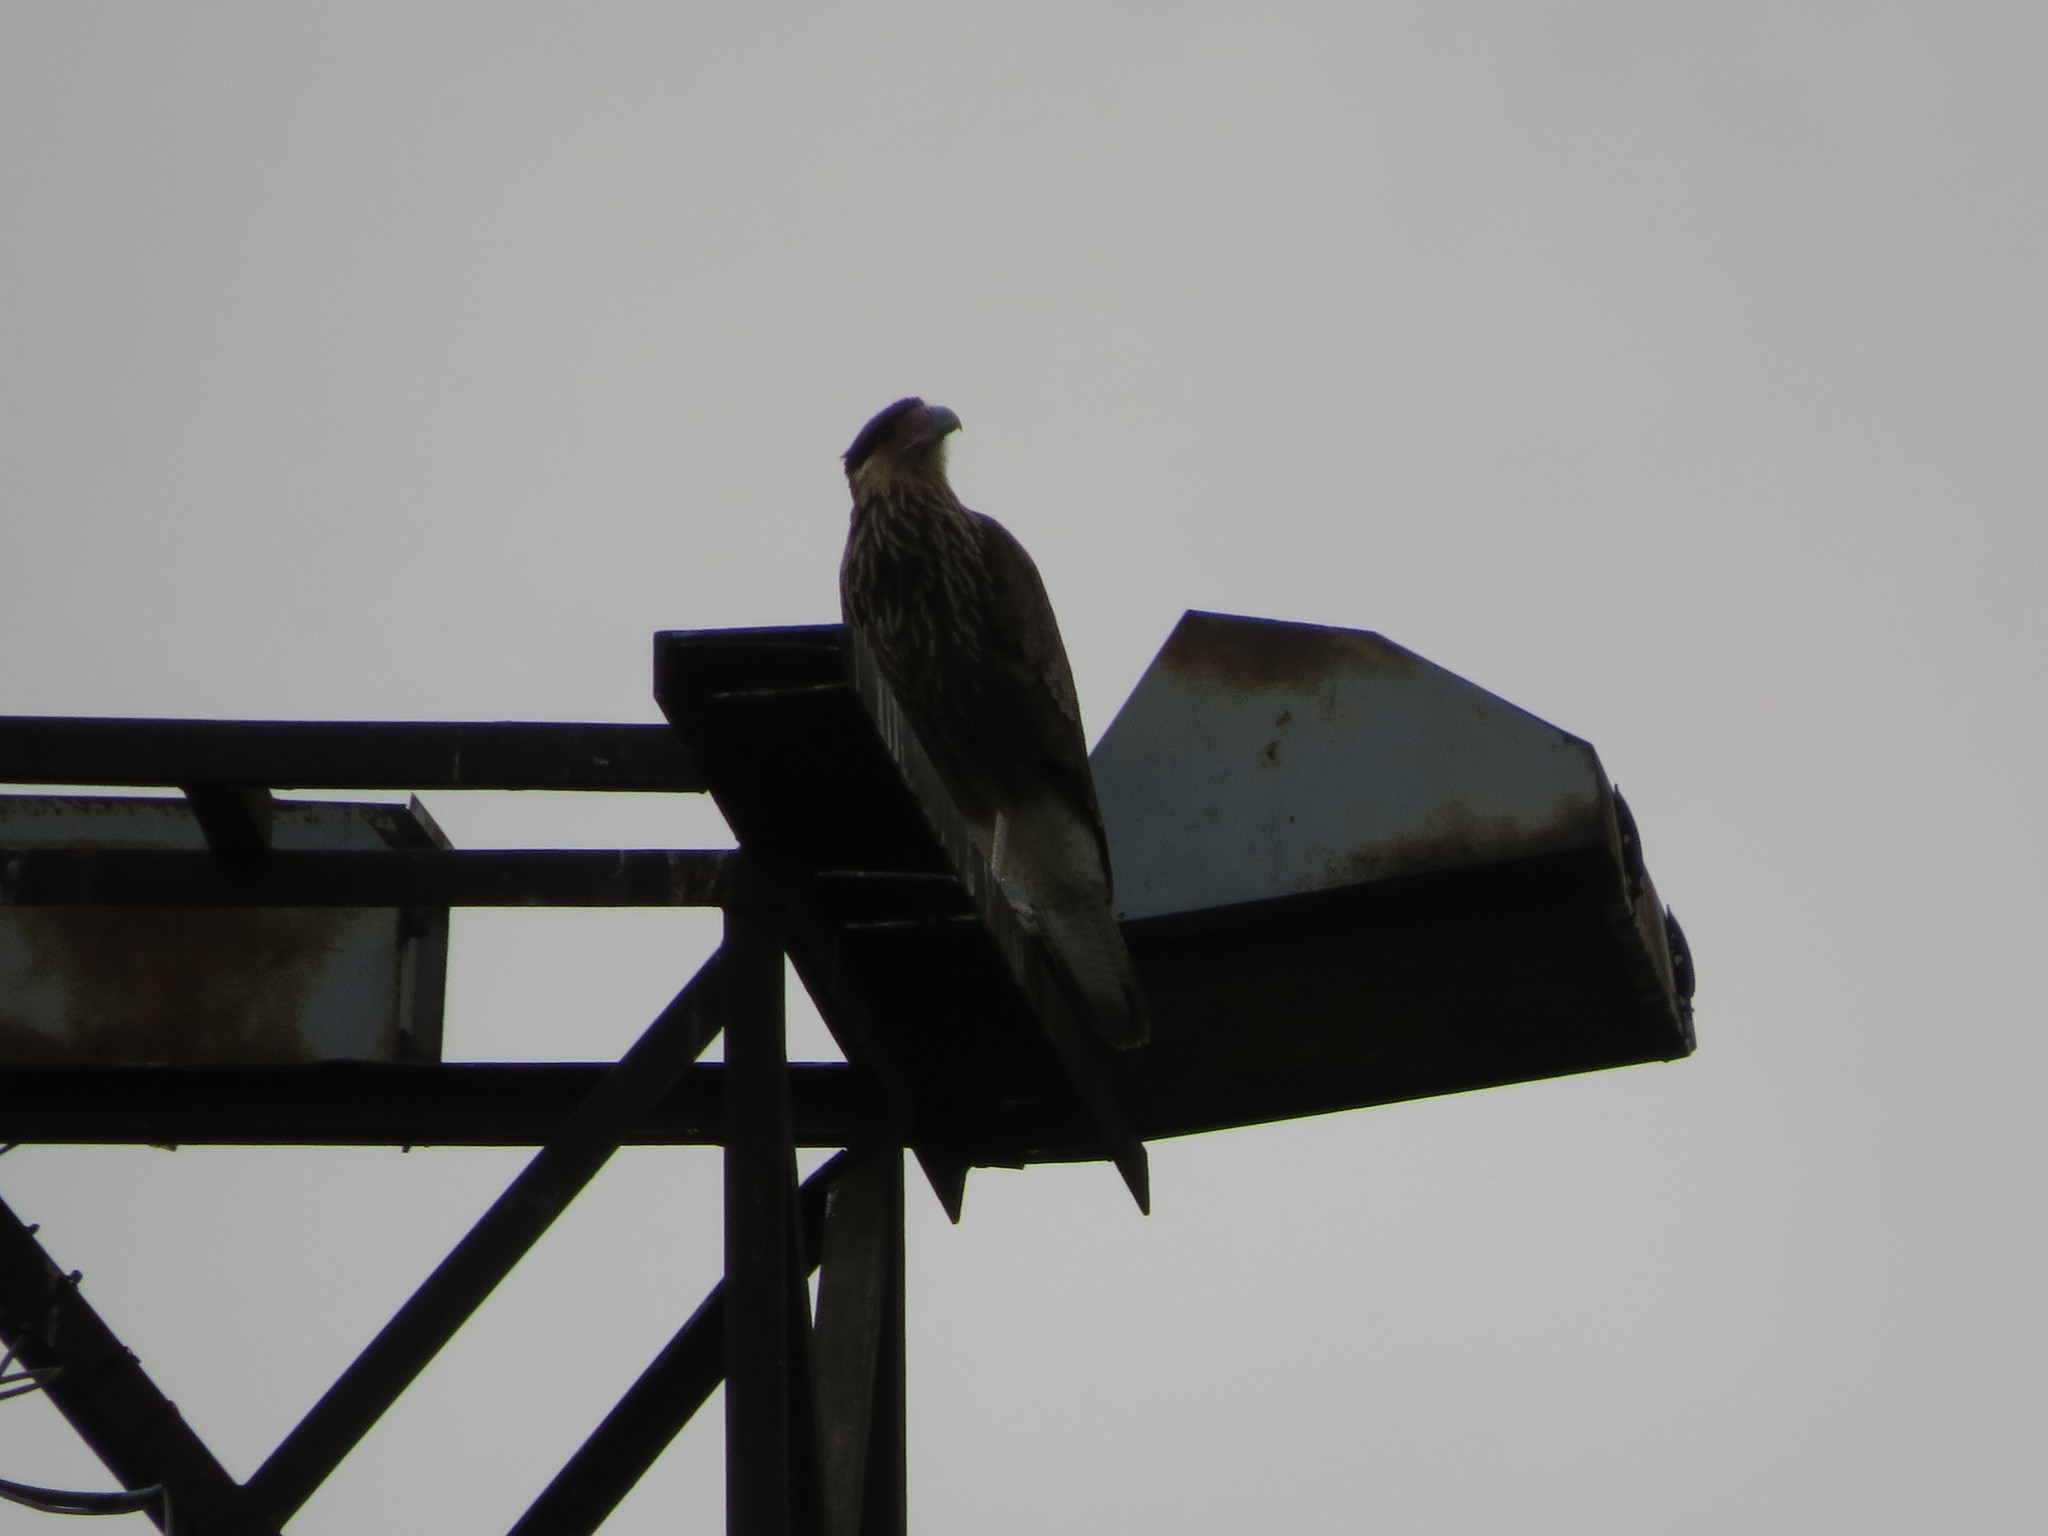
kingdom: Animalia
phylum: Chordata
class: Aves
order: Falconiformes
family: Falconidae
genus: Caracara
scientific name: Caracara plancus
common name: Southern caracara
